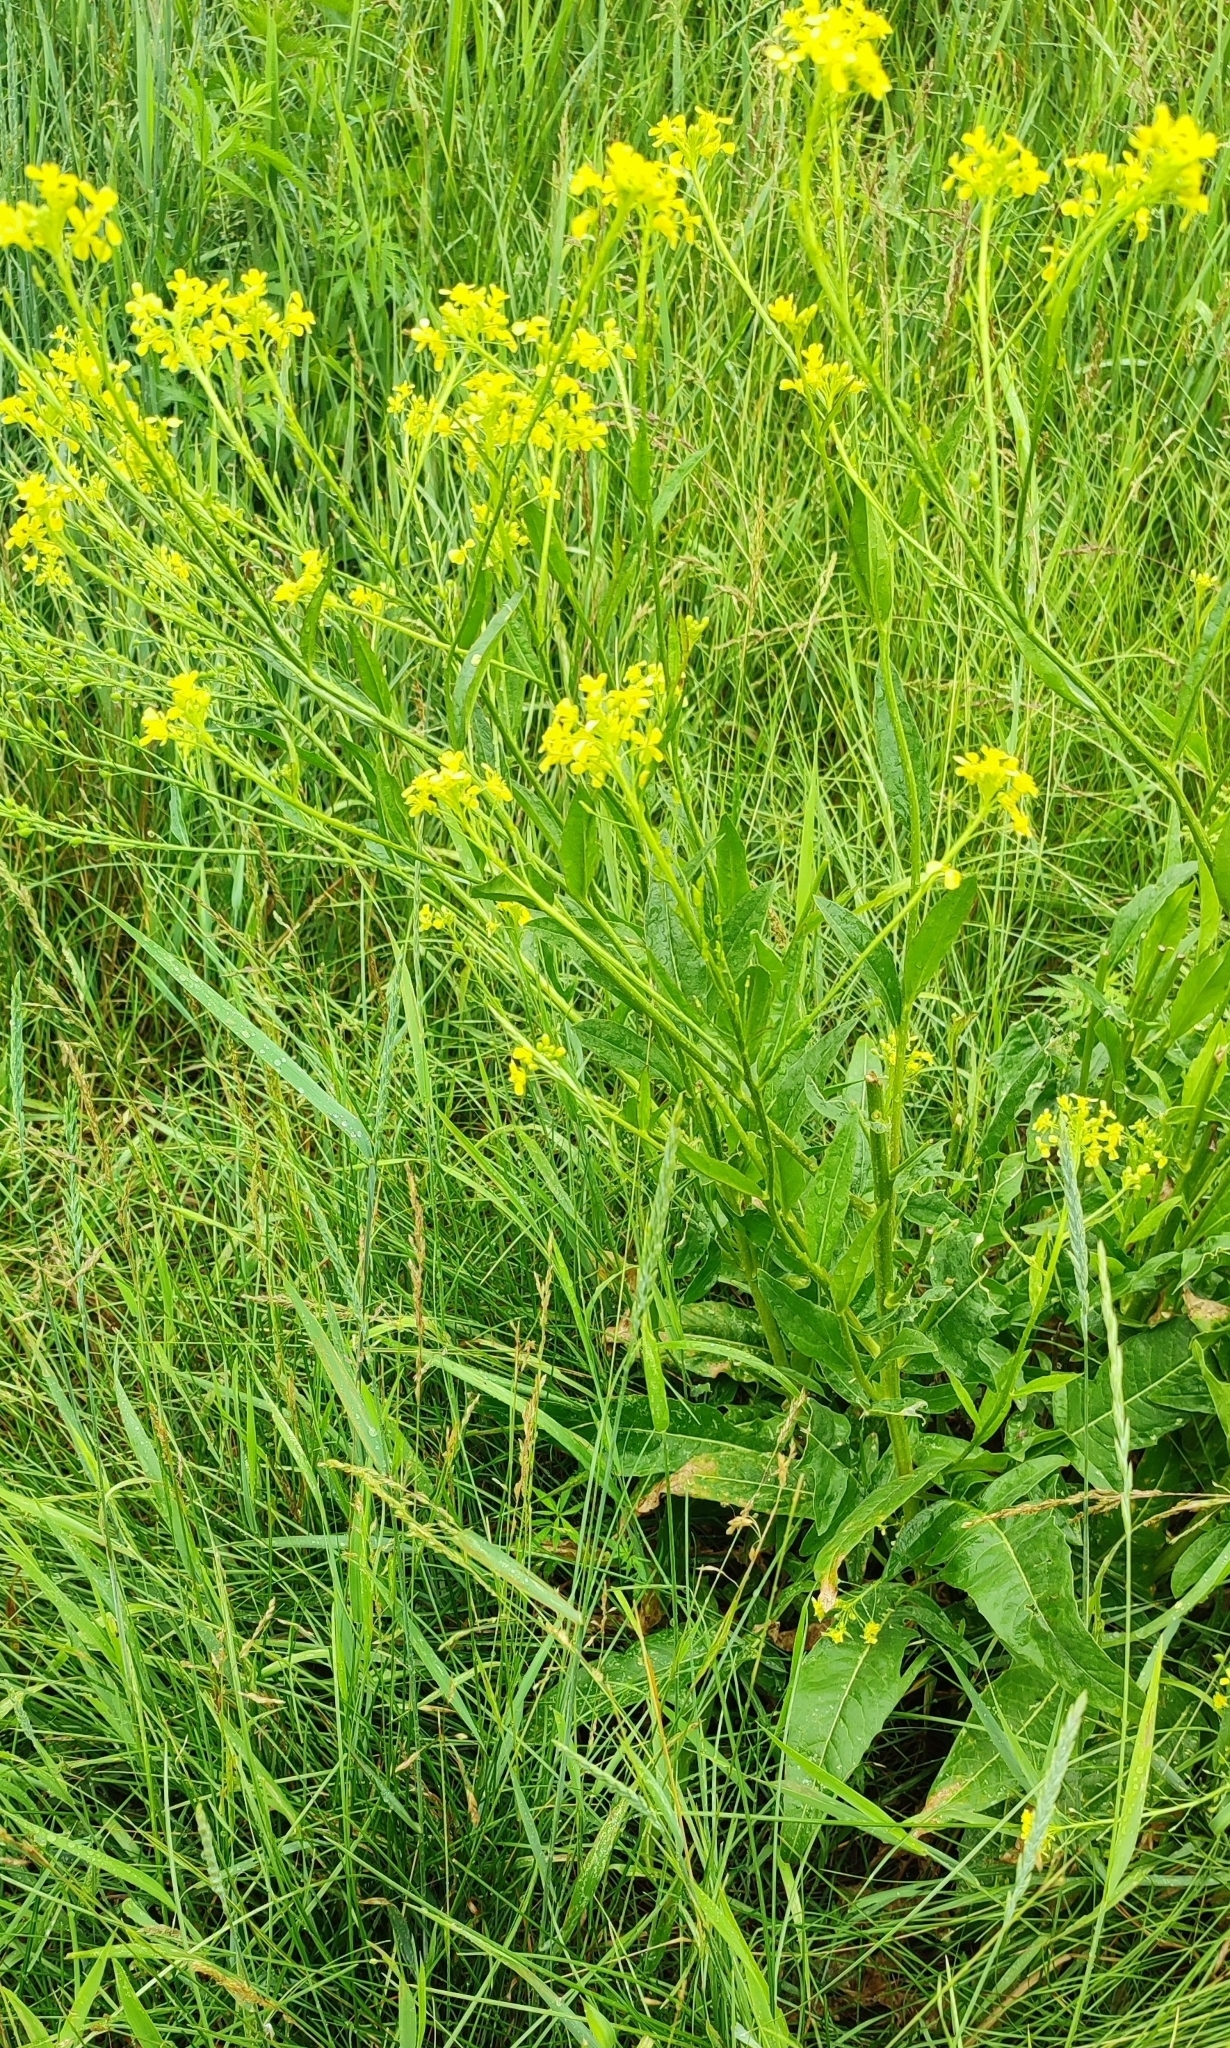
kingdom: Plantae
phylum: Tracheophyta
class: Magnoliopsida
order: Brassicales
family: Brassicaceae
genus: Bunias
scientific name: Bunias orientalis
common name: Warty-cabbage
